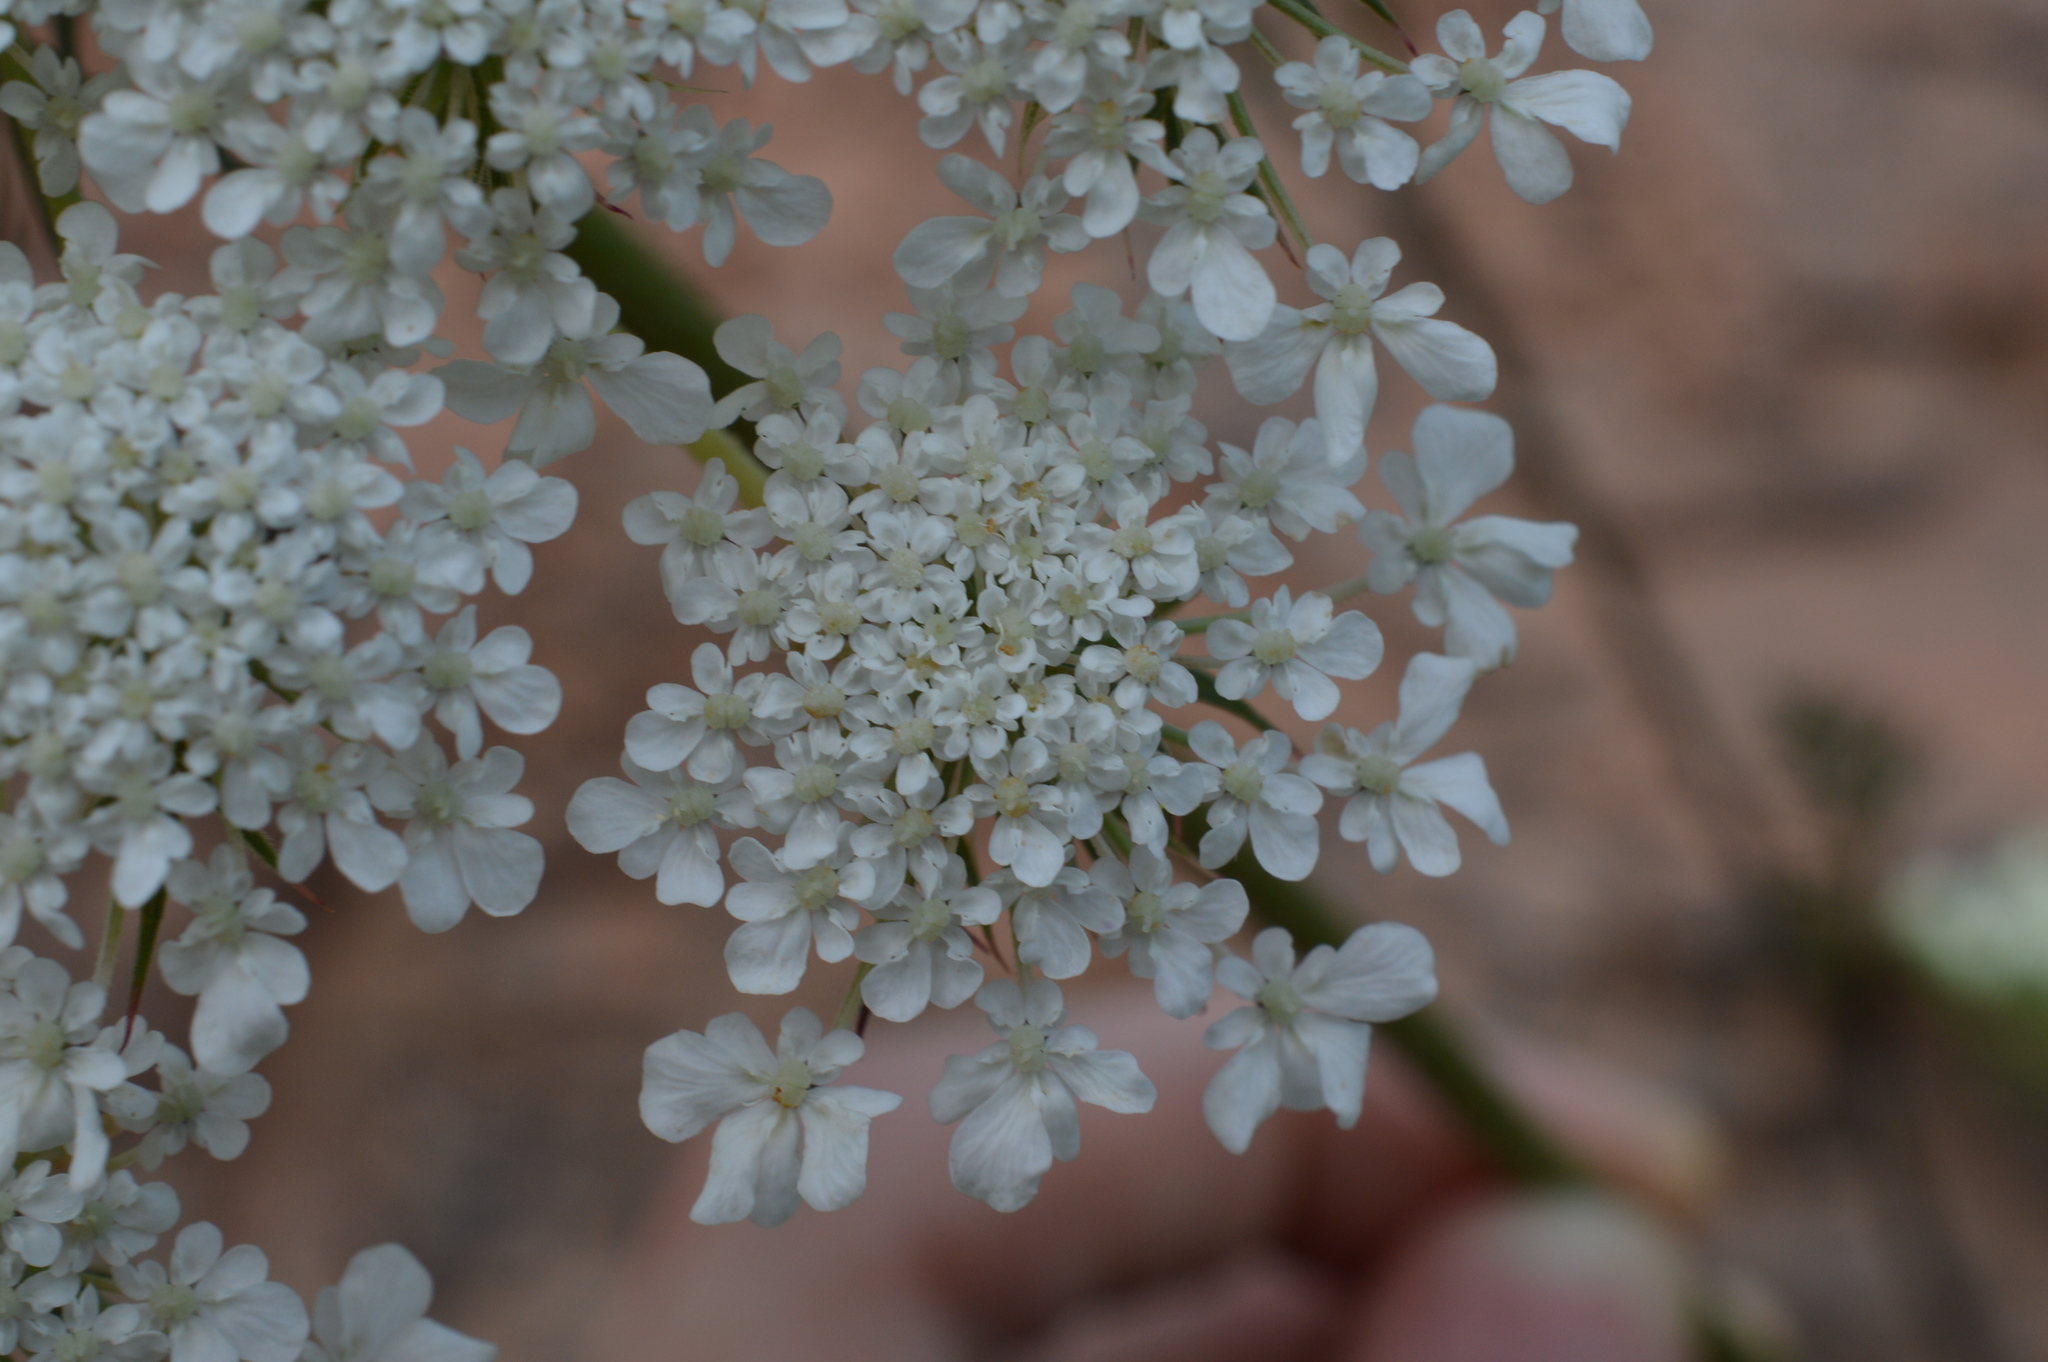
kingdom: Plantae
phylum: Tracheophyta
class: Magnoliopsida
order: Apiales
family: Apiaceae
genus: Daucus
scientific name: Daucus carota
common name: Wild carrot
